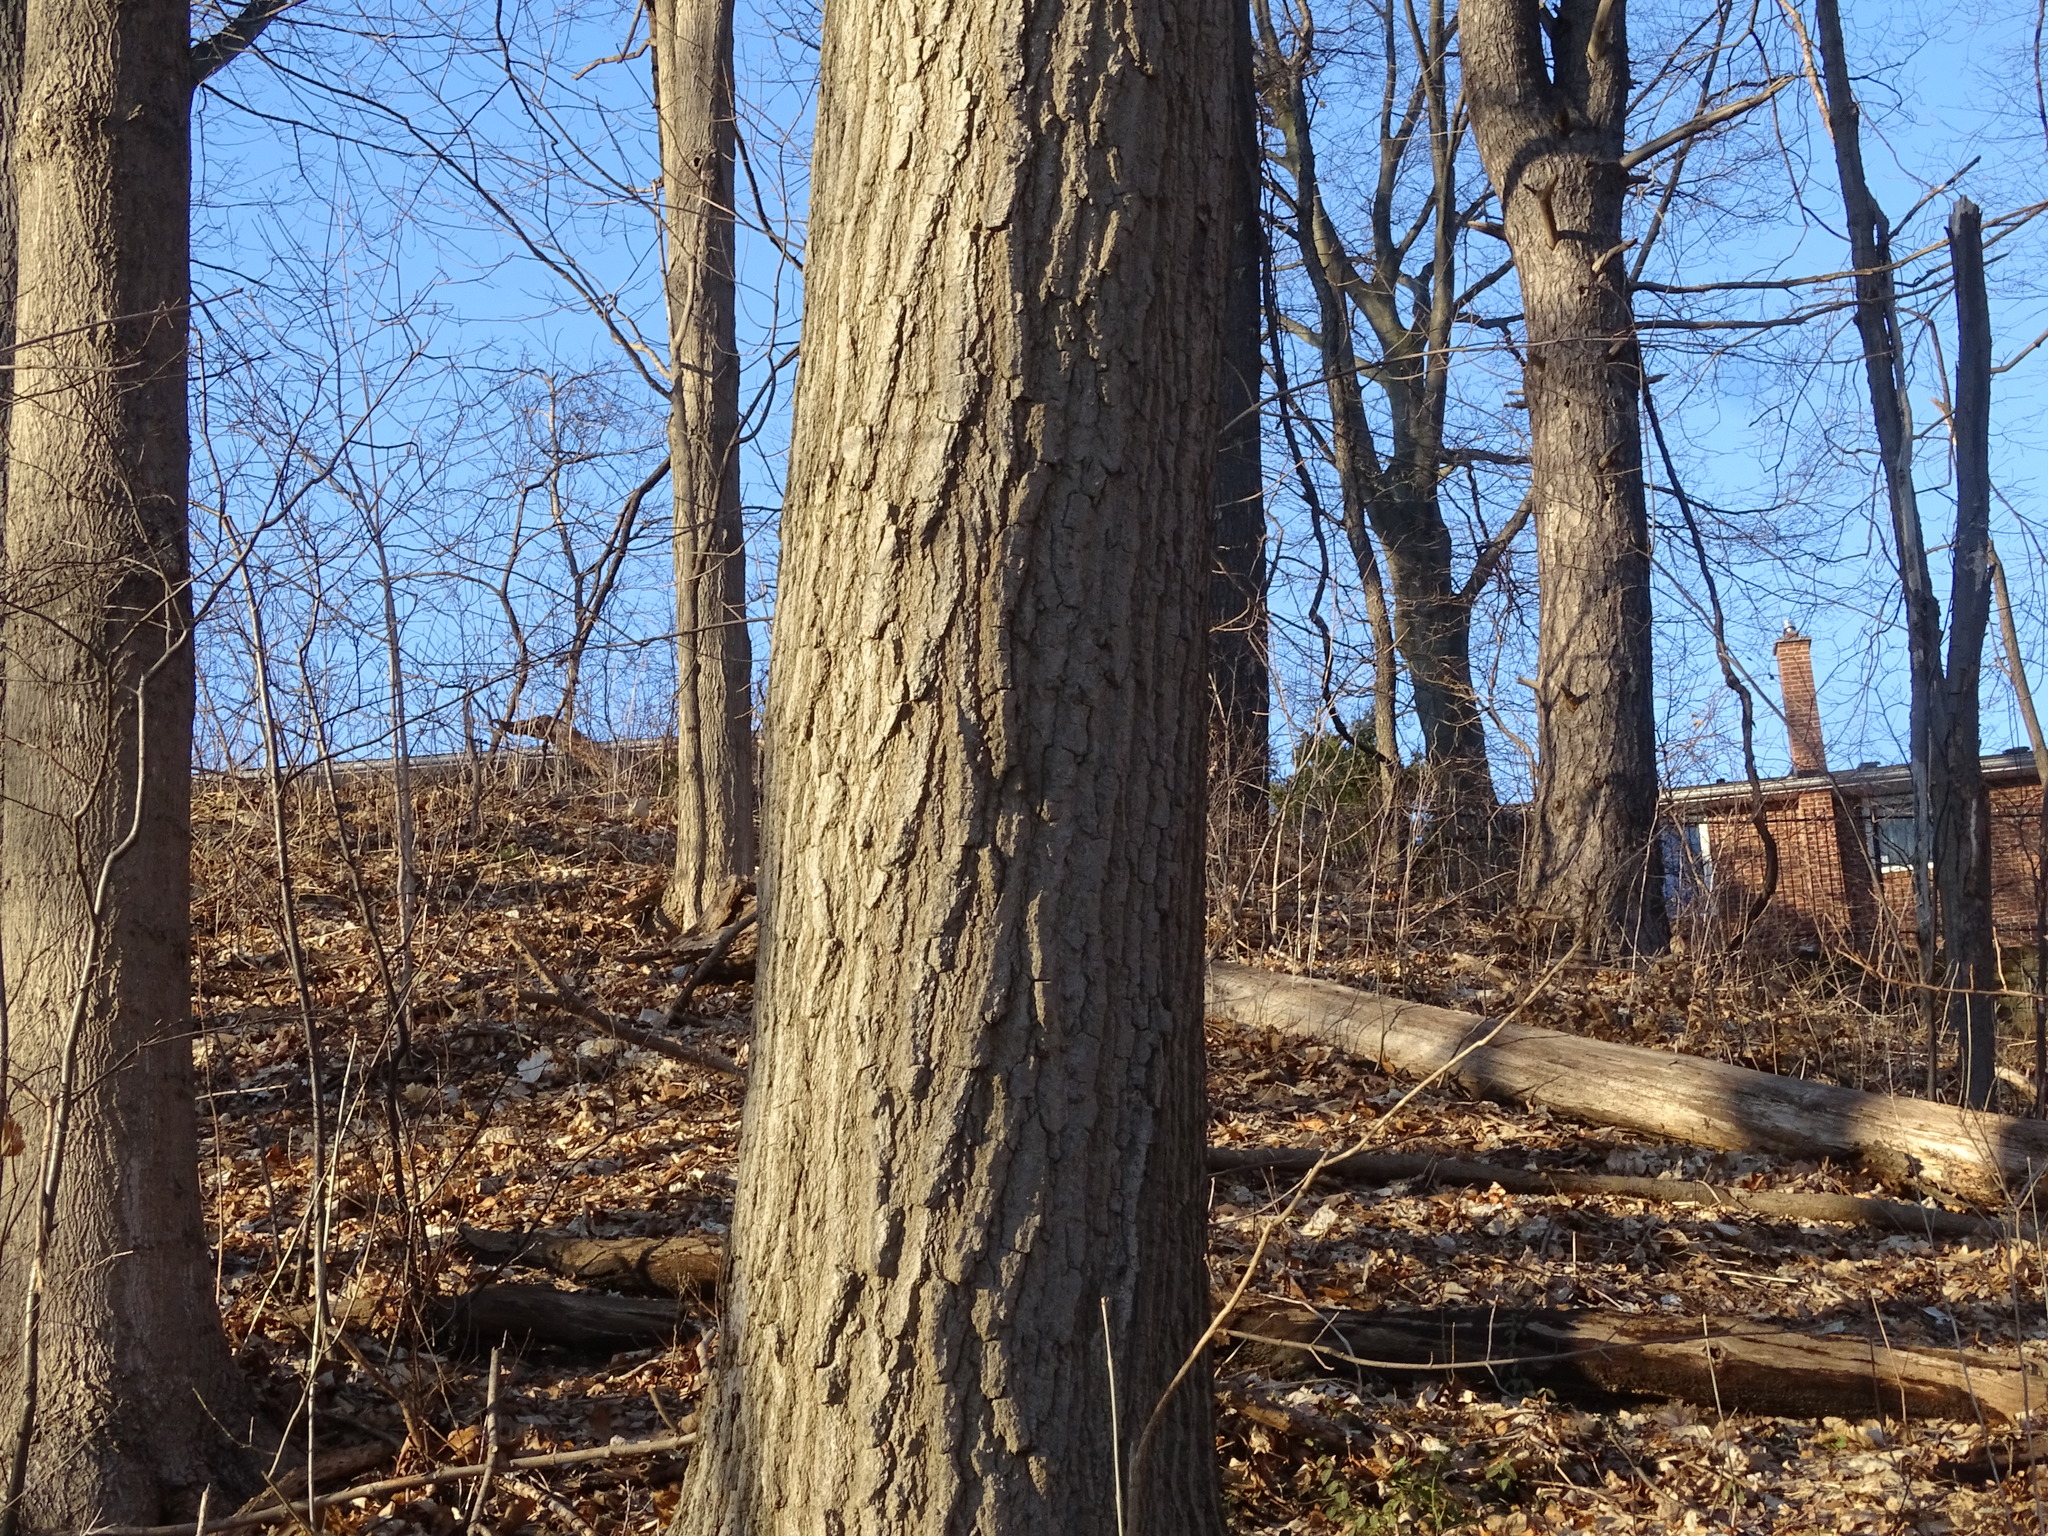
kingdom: Plantae
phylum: Tracheophyta
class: Magnoliopsida
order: Fagales
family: Fagaceae
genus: Quercus
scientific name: Quercus rubra
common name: Red oak
